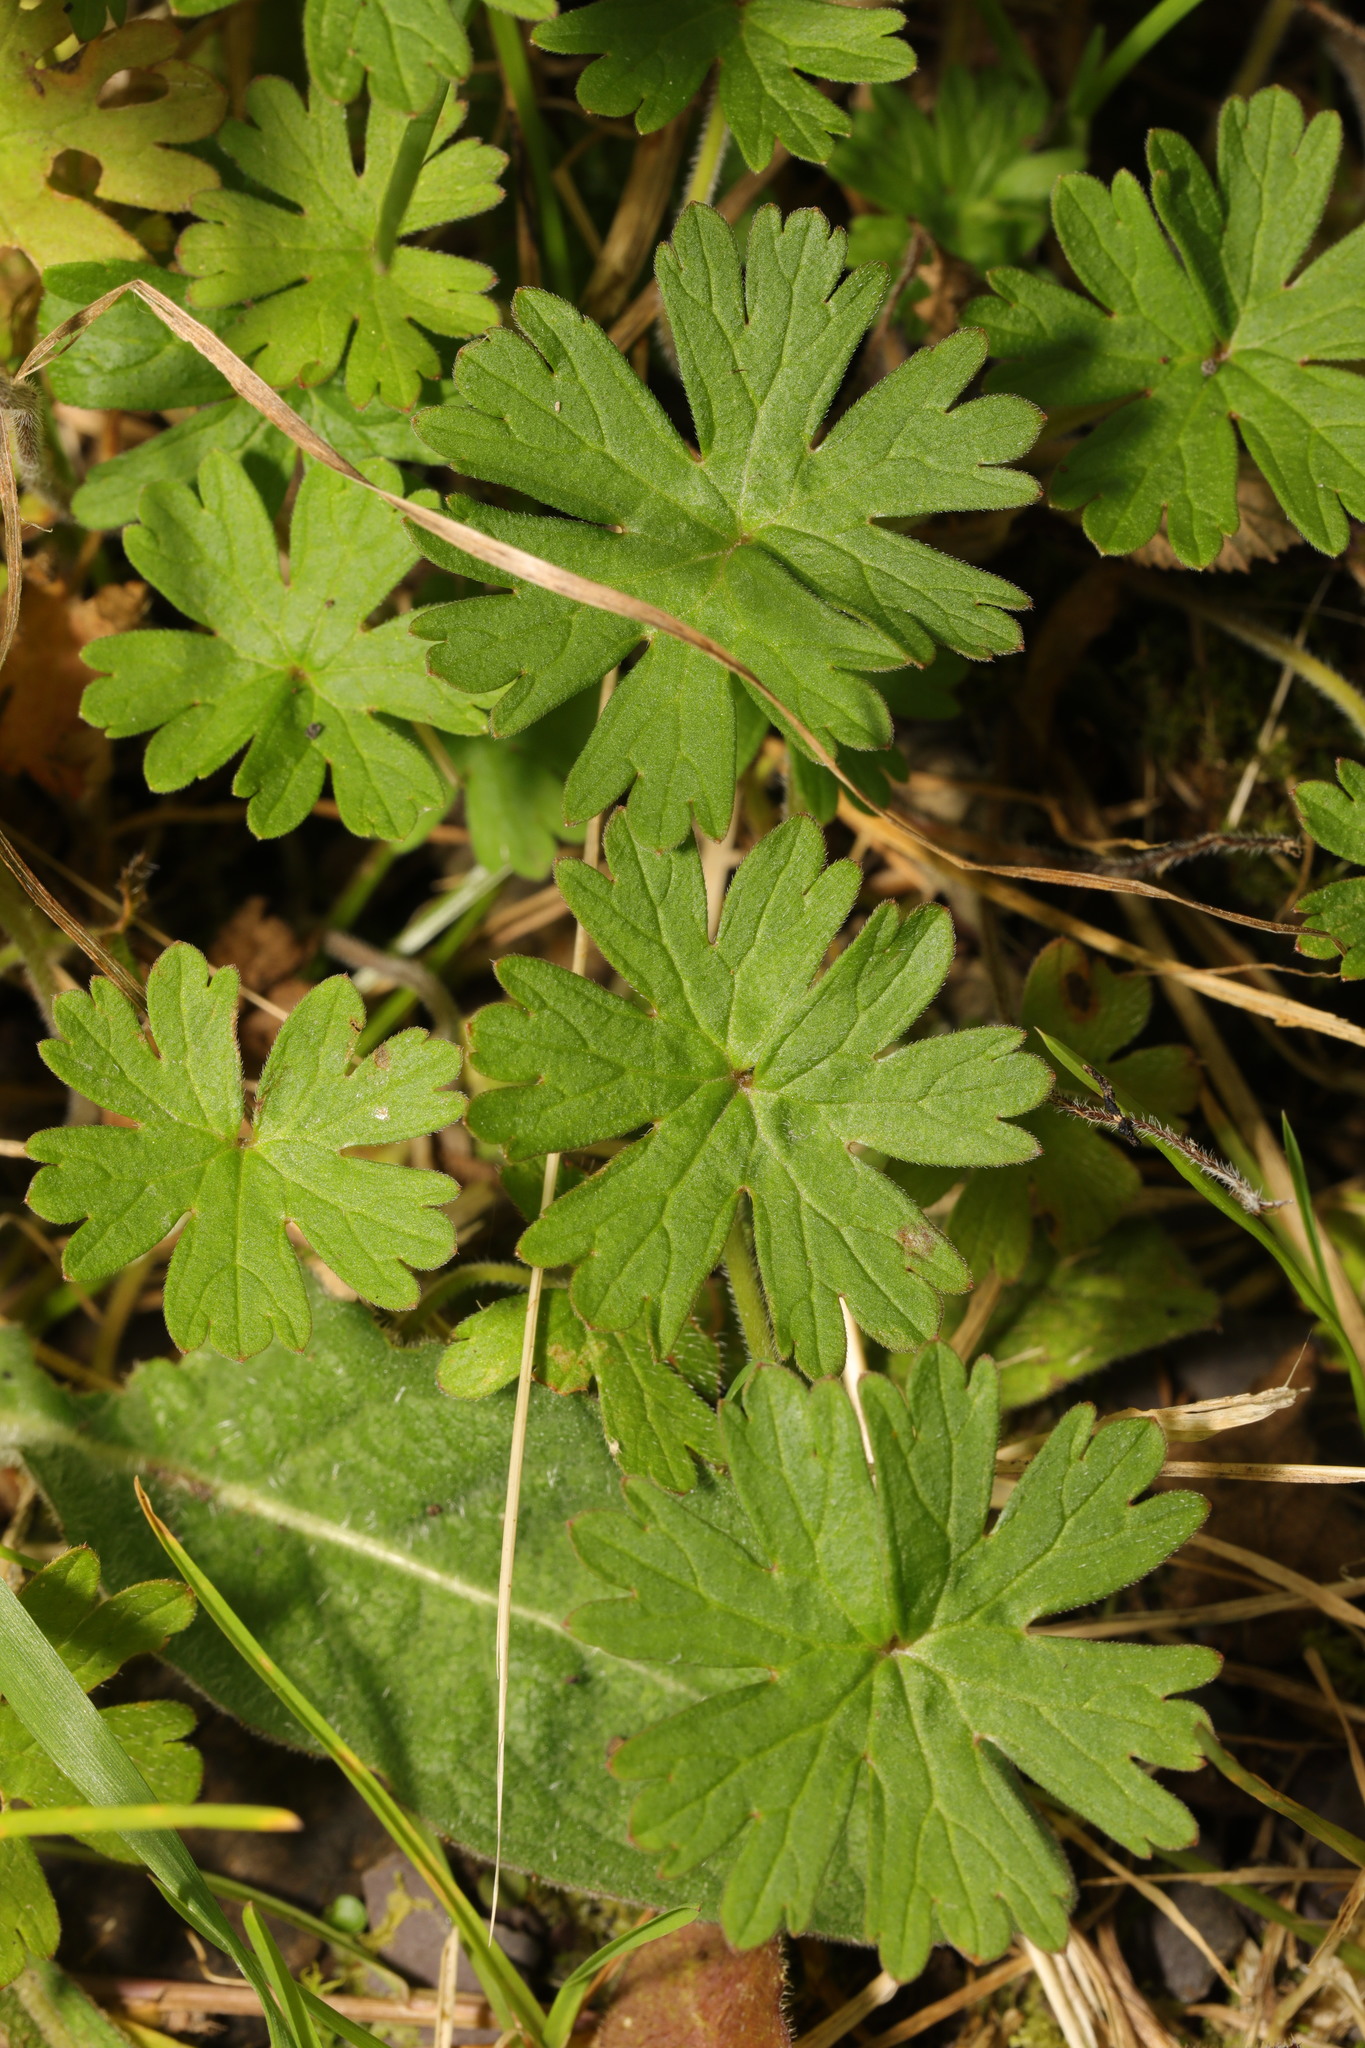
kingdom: Plantae
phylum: Tracheophyta
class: Magnoliopsida
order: Geraniales
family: Geraniaceae
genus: Geranium
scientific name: Geranium molle
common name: Dove's-foot crane's-bill
